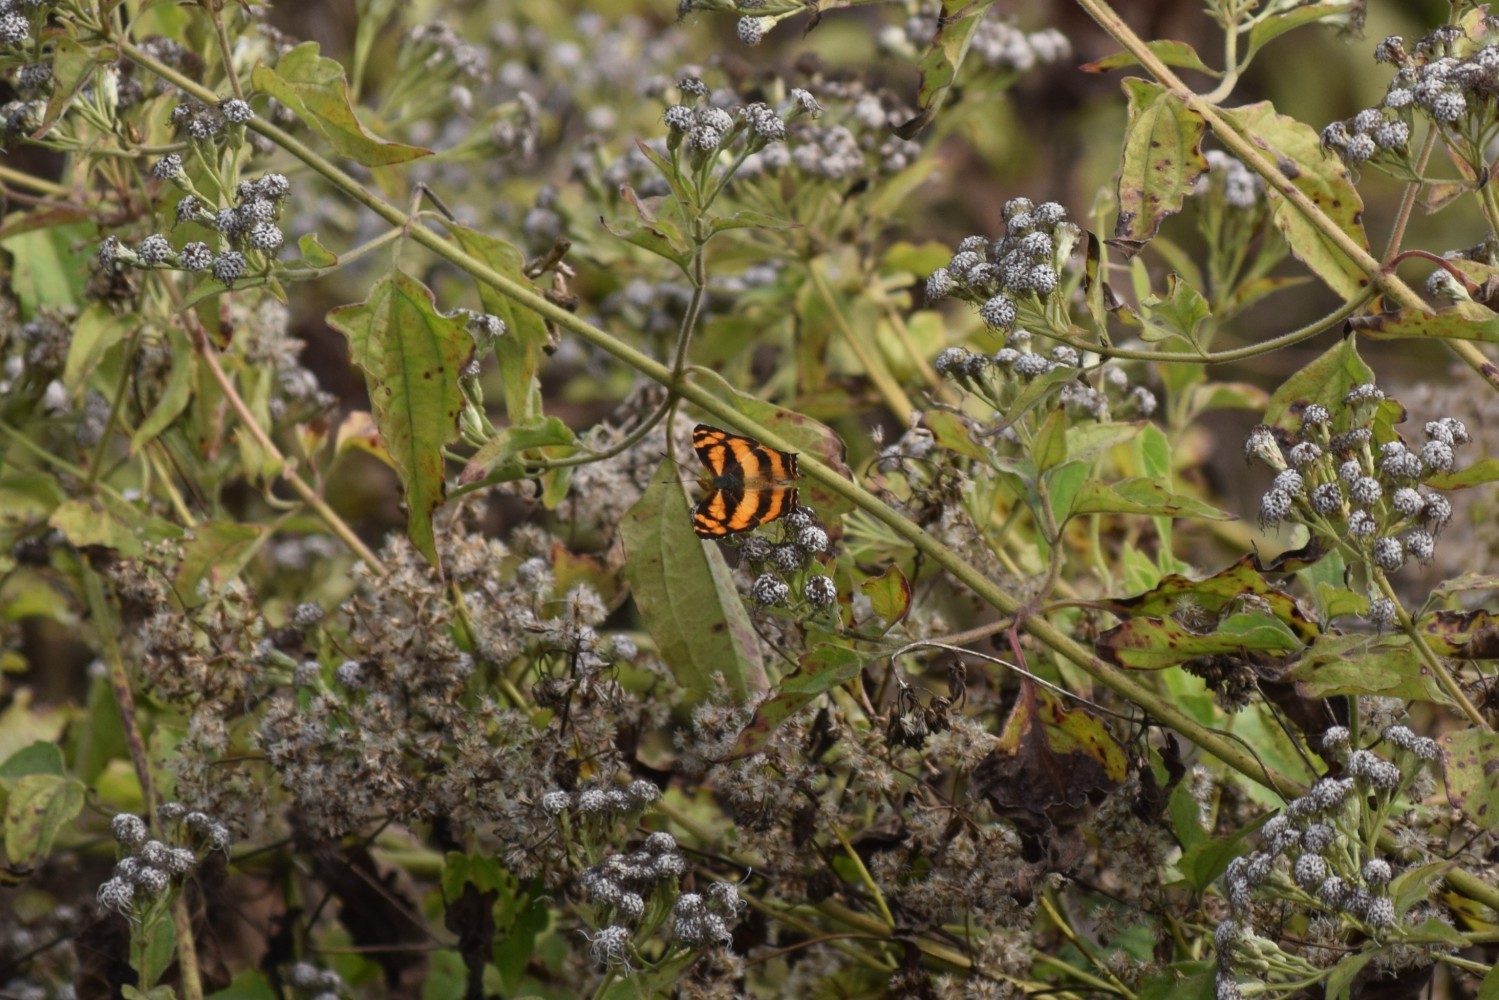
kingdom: Animalia
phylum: Arthropoda
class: Insecta
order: Lepidoptera
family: Nymphalidae
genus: Symbrenthia
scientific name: Symbrenthia hypselis
